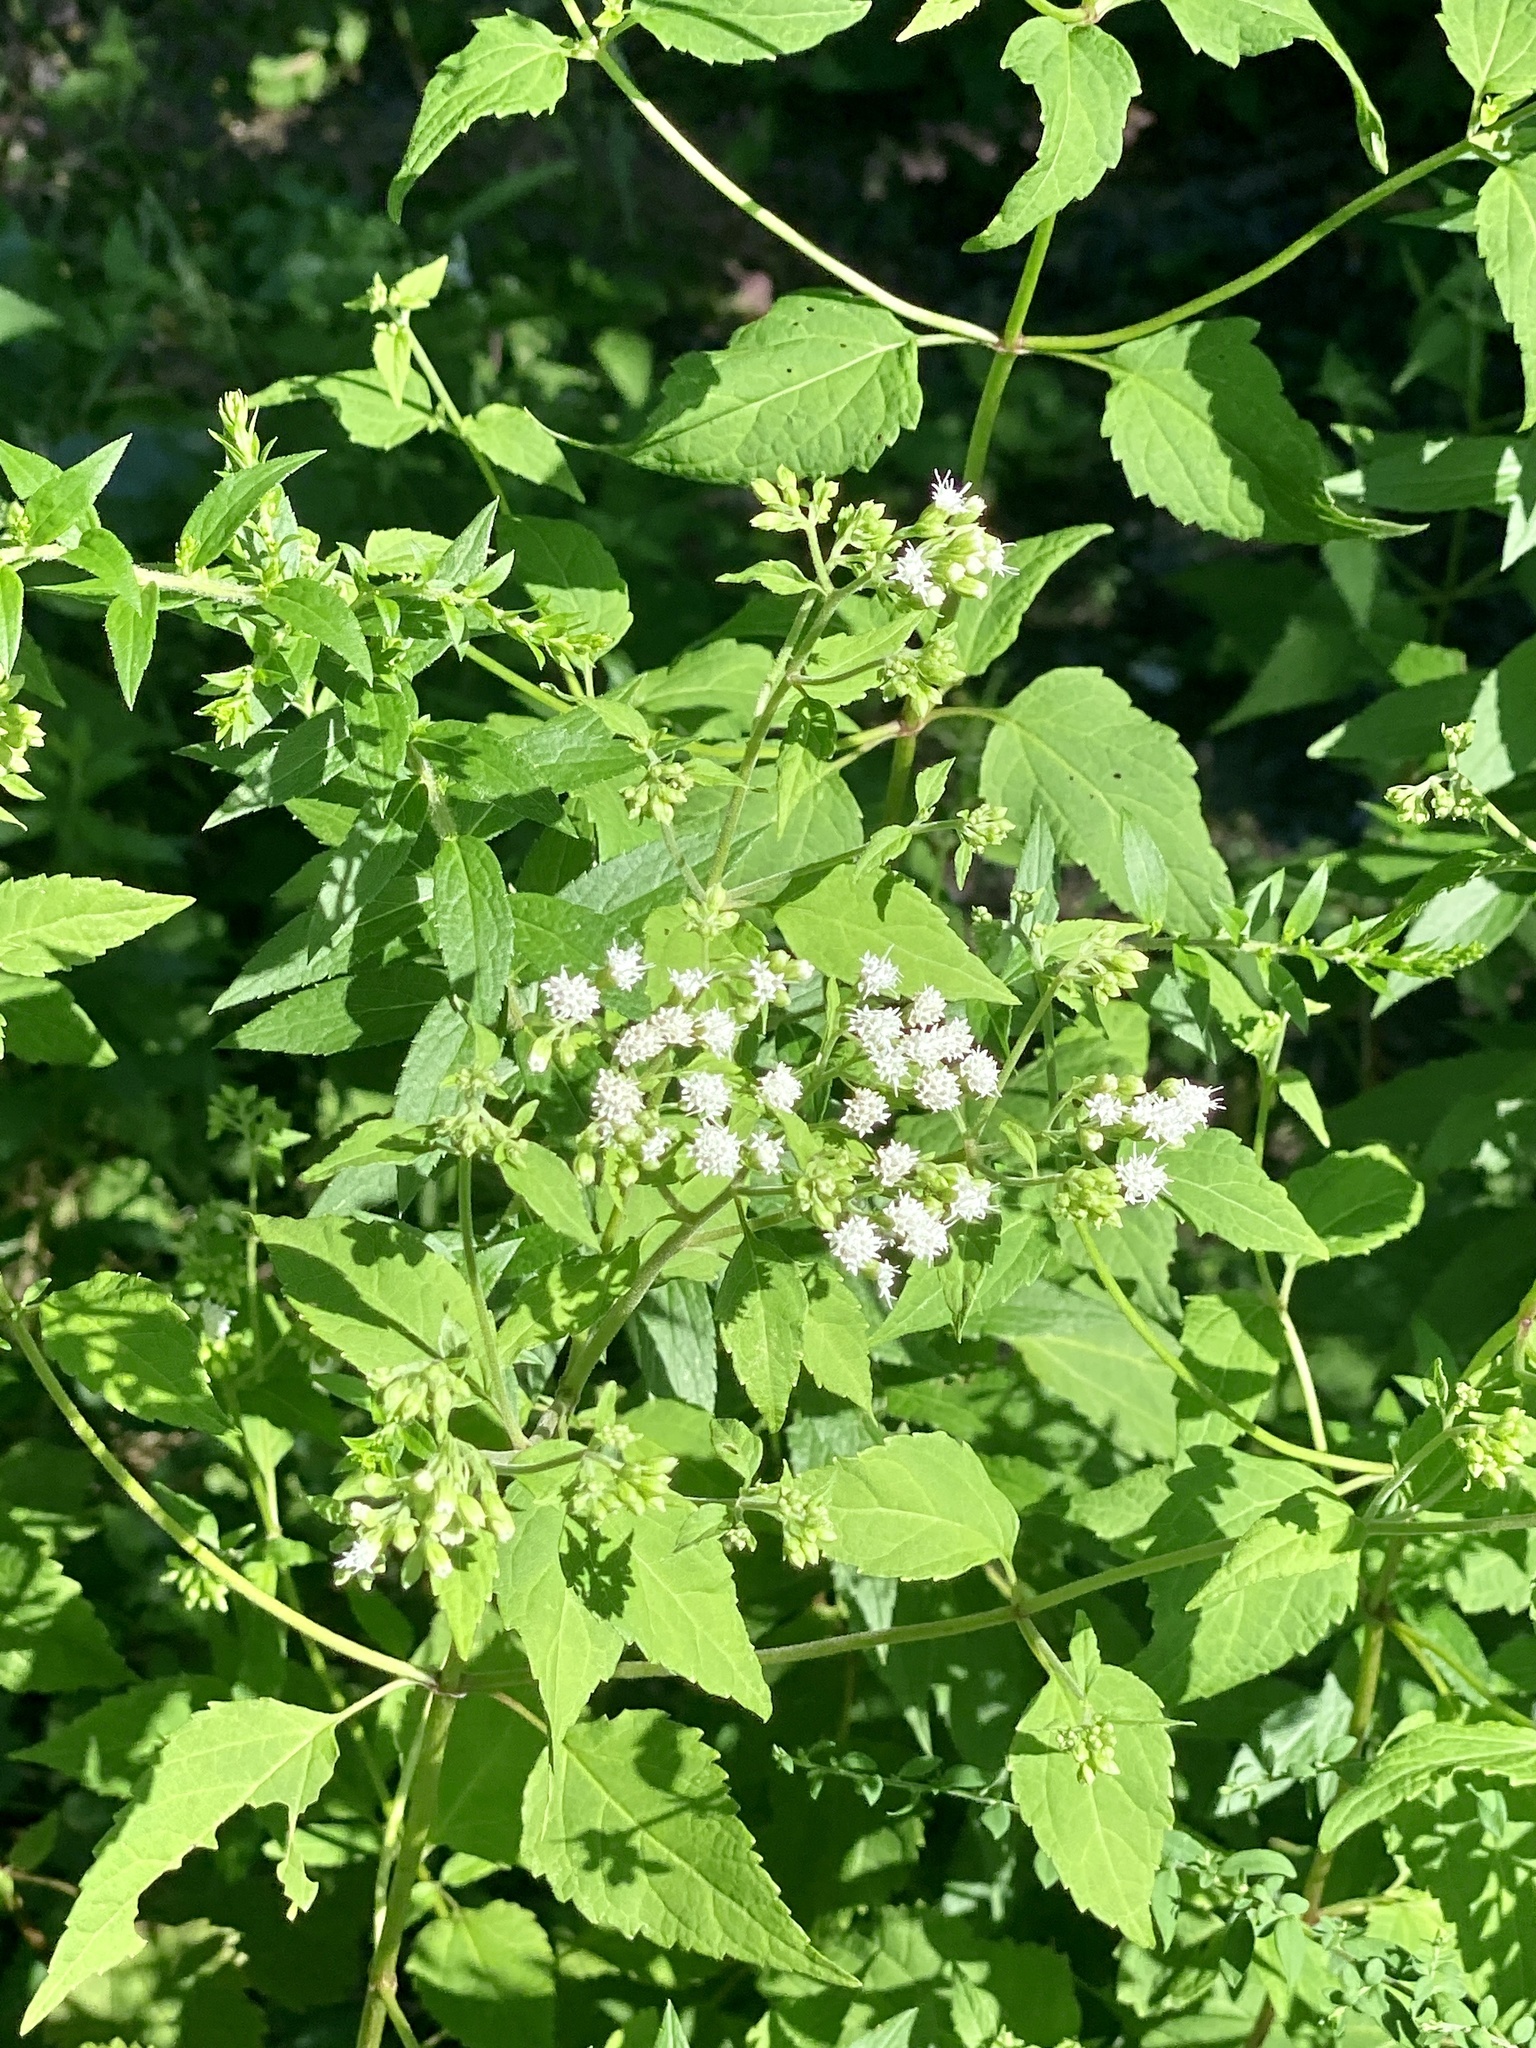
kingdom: Plantae
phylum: Tracheophyta
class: Magnoliopsida
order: Asterales
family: Asteraceae
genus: Ageratina
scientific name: Ageratina altissima
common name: White snakeroot
